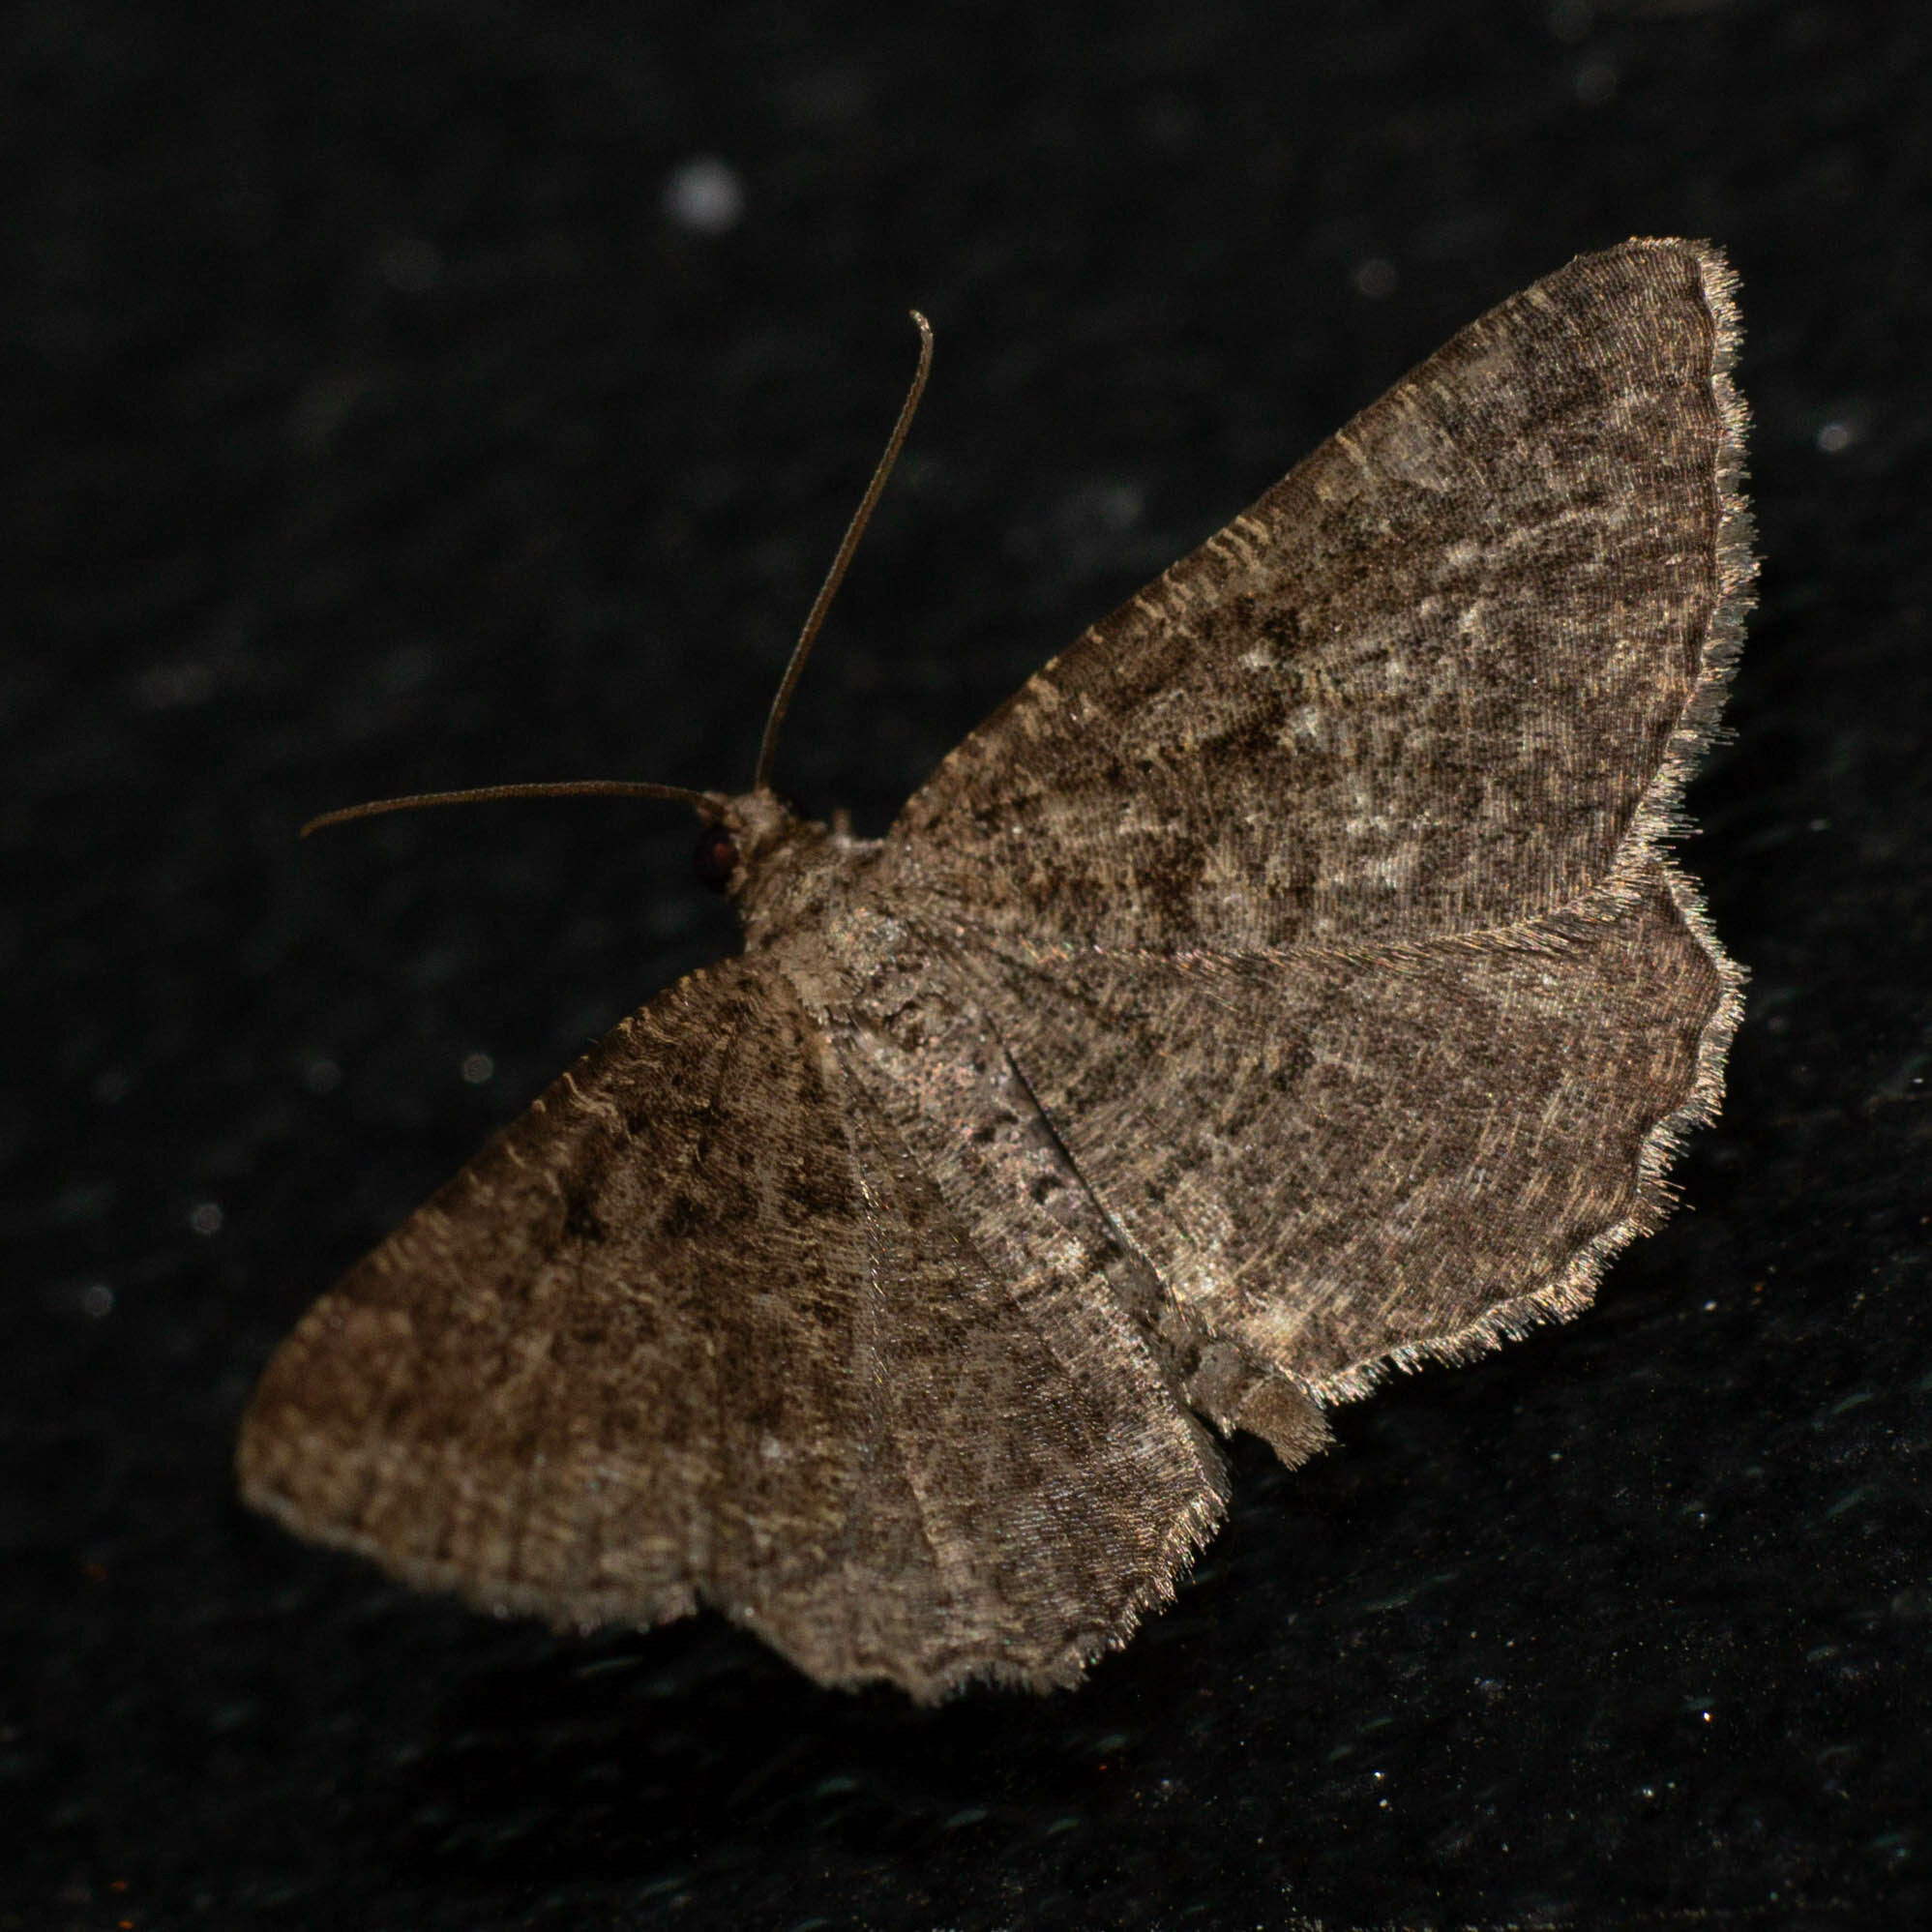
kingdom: Animalia
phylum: Arthropoda
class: Insecta
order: Lepidoptera
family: Geometridae
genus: Rhoptria
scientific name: Rhoptria asperaria
